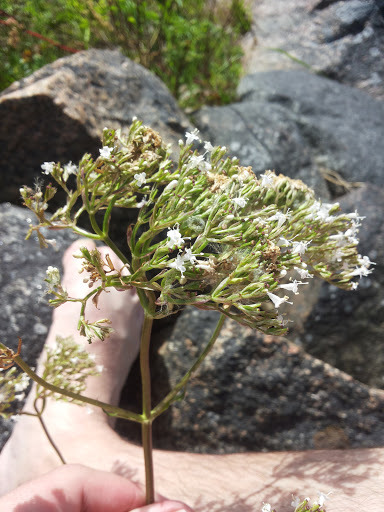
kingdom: Plantae
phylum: Tracheophyta
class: Magnoliopsida
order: Dipsacales
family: Caprifoliaceae
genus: Valeriana
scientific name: Valeriana officinalis
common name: Common valerian
